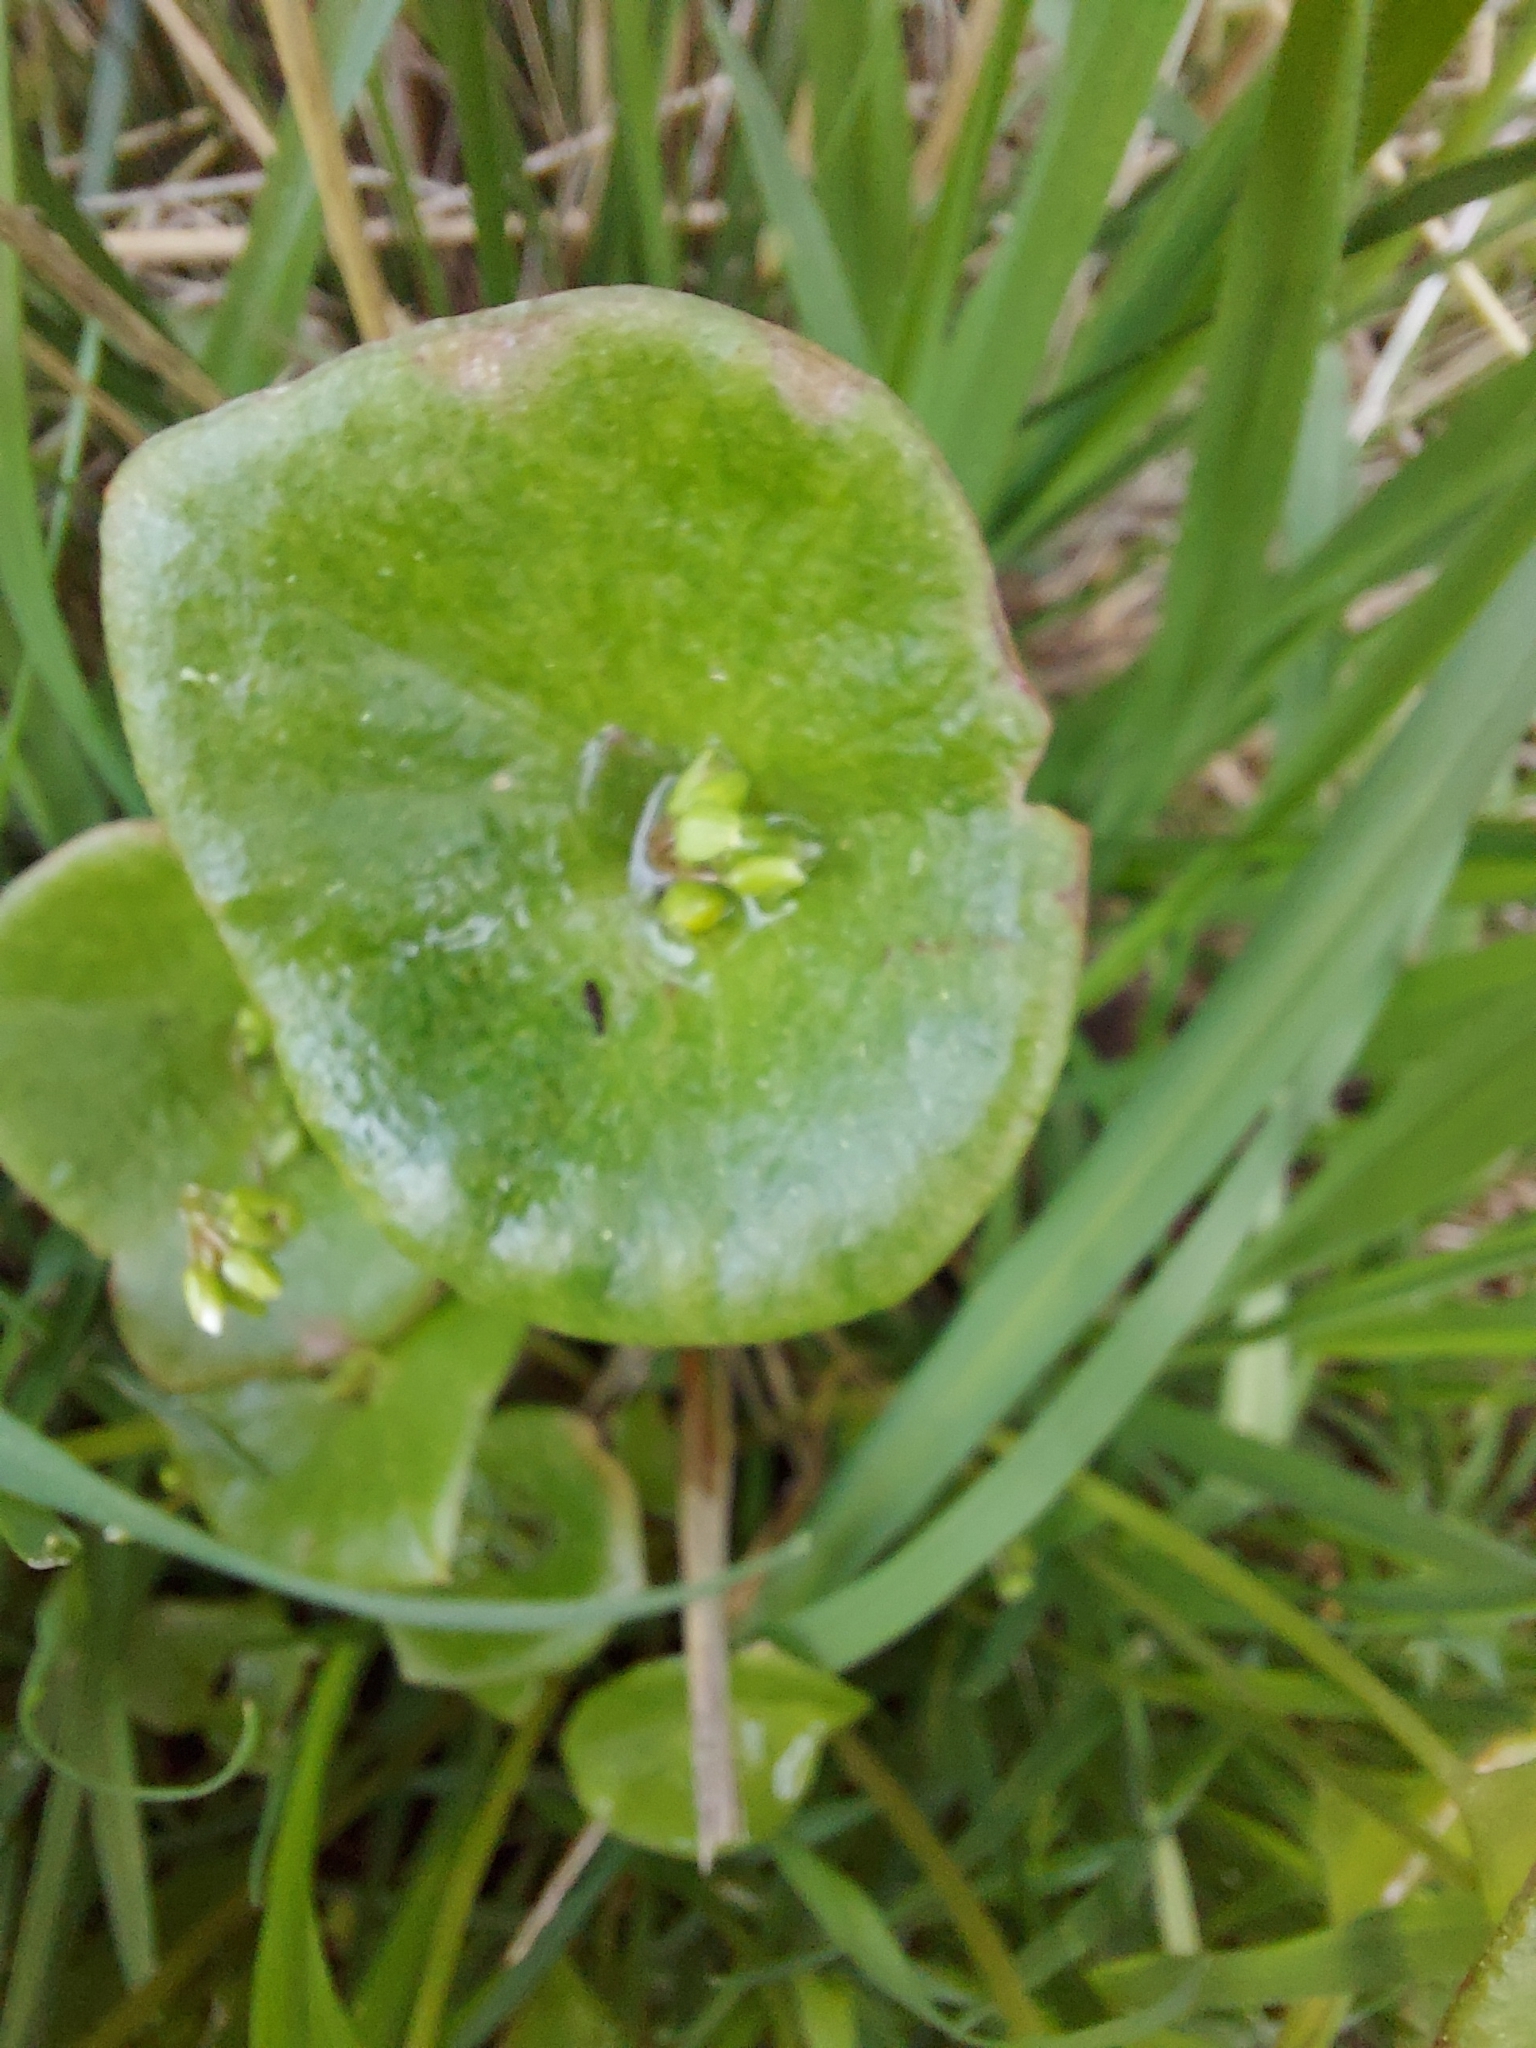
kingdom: Plantae
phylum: Tracheophyta
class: Magnoliopsida
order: Caryophyllales
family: Montiaceae
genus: Claytonia
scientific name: Claytonia perfoliata
